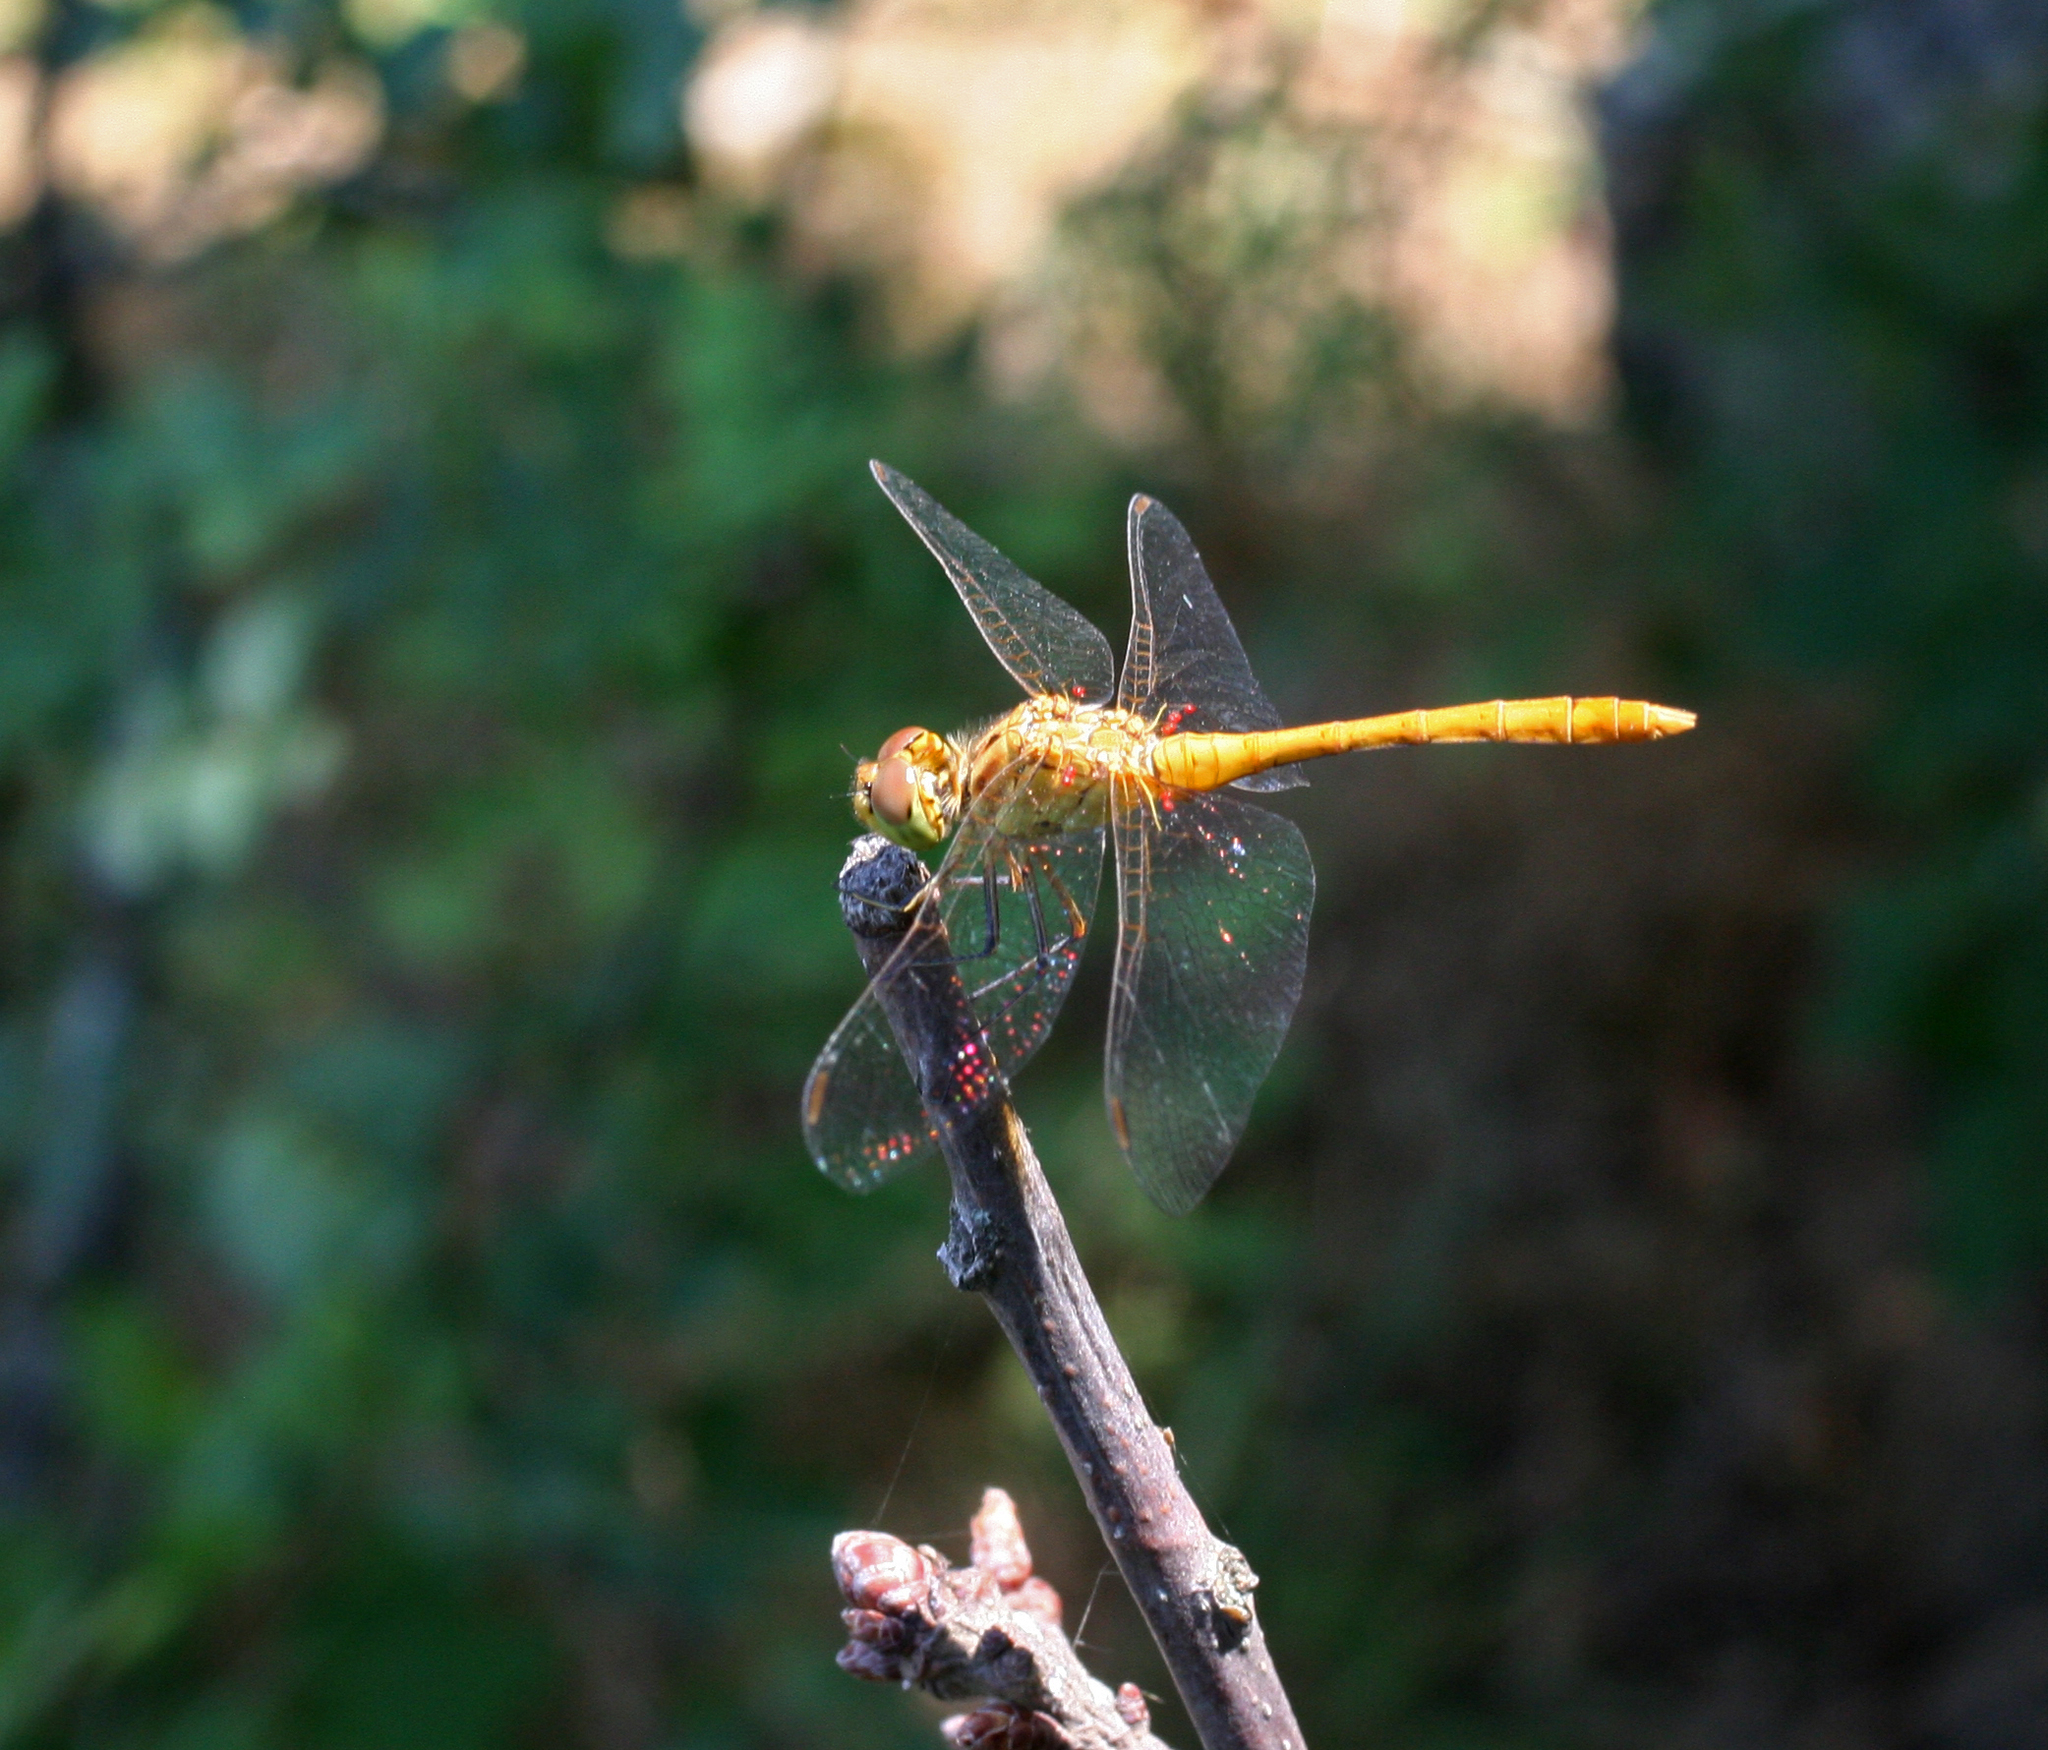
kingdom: Animalia
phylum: Arthropoda
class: Insecta
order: Odonata
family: Libellulidae
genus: Sympetrum
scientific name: Sympetrum meridionale
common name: Southern darter
